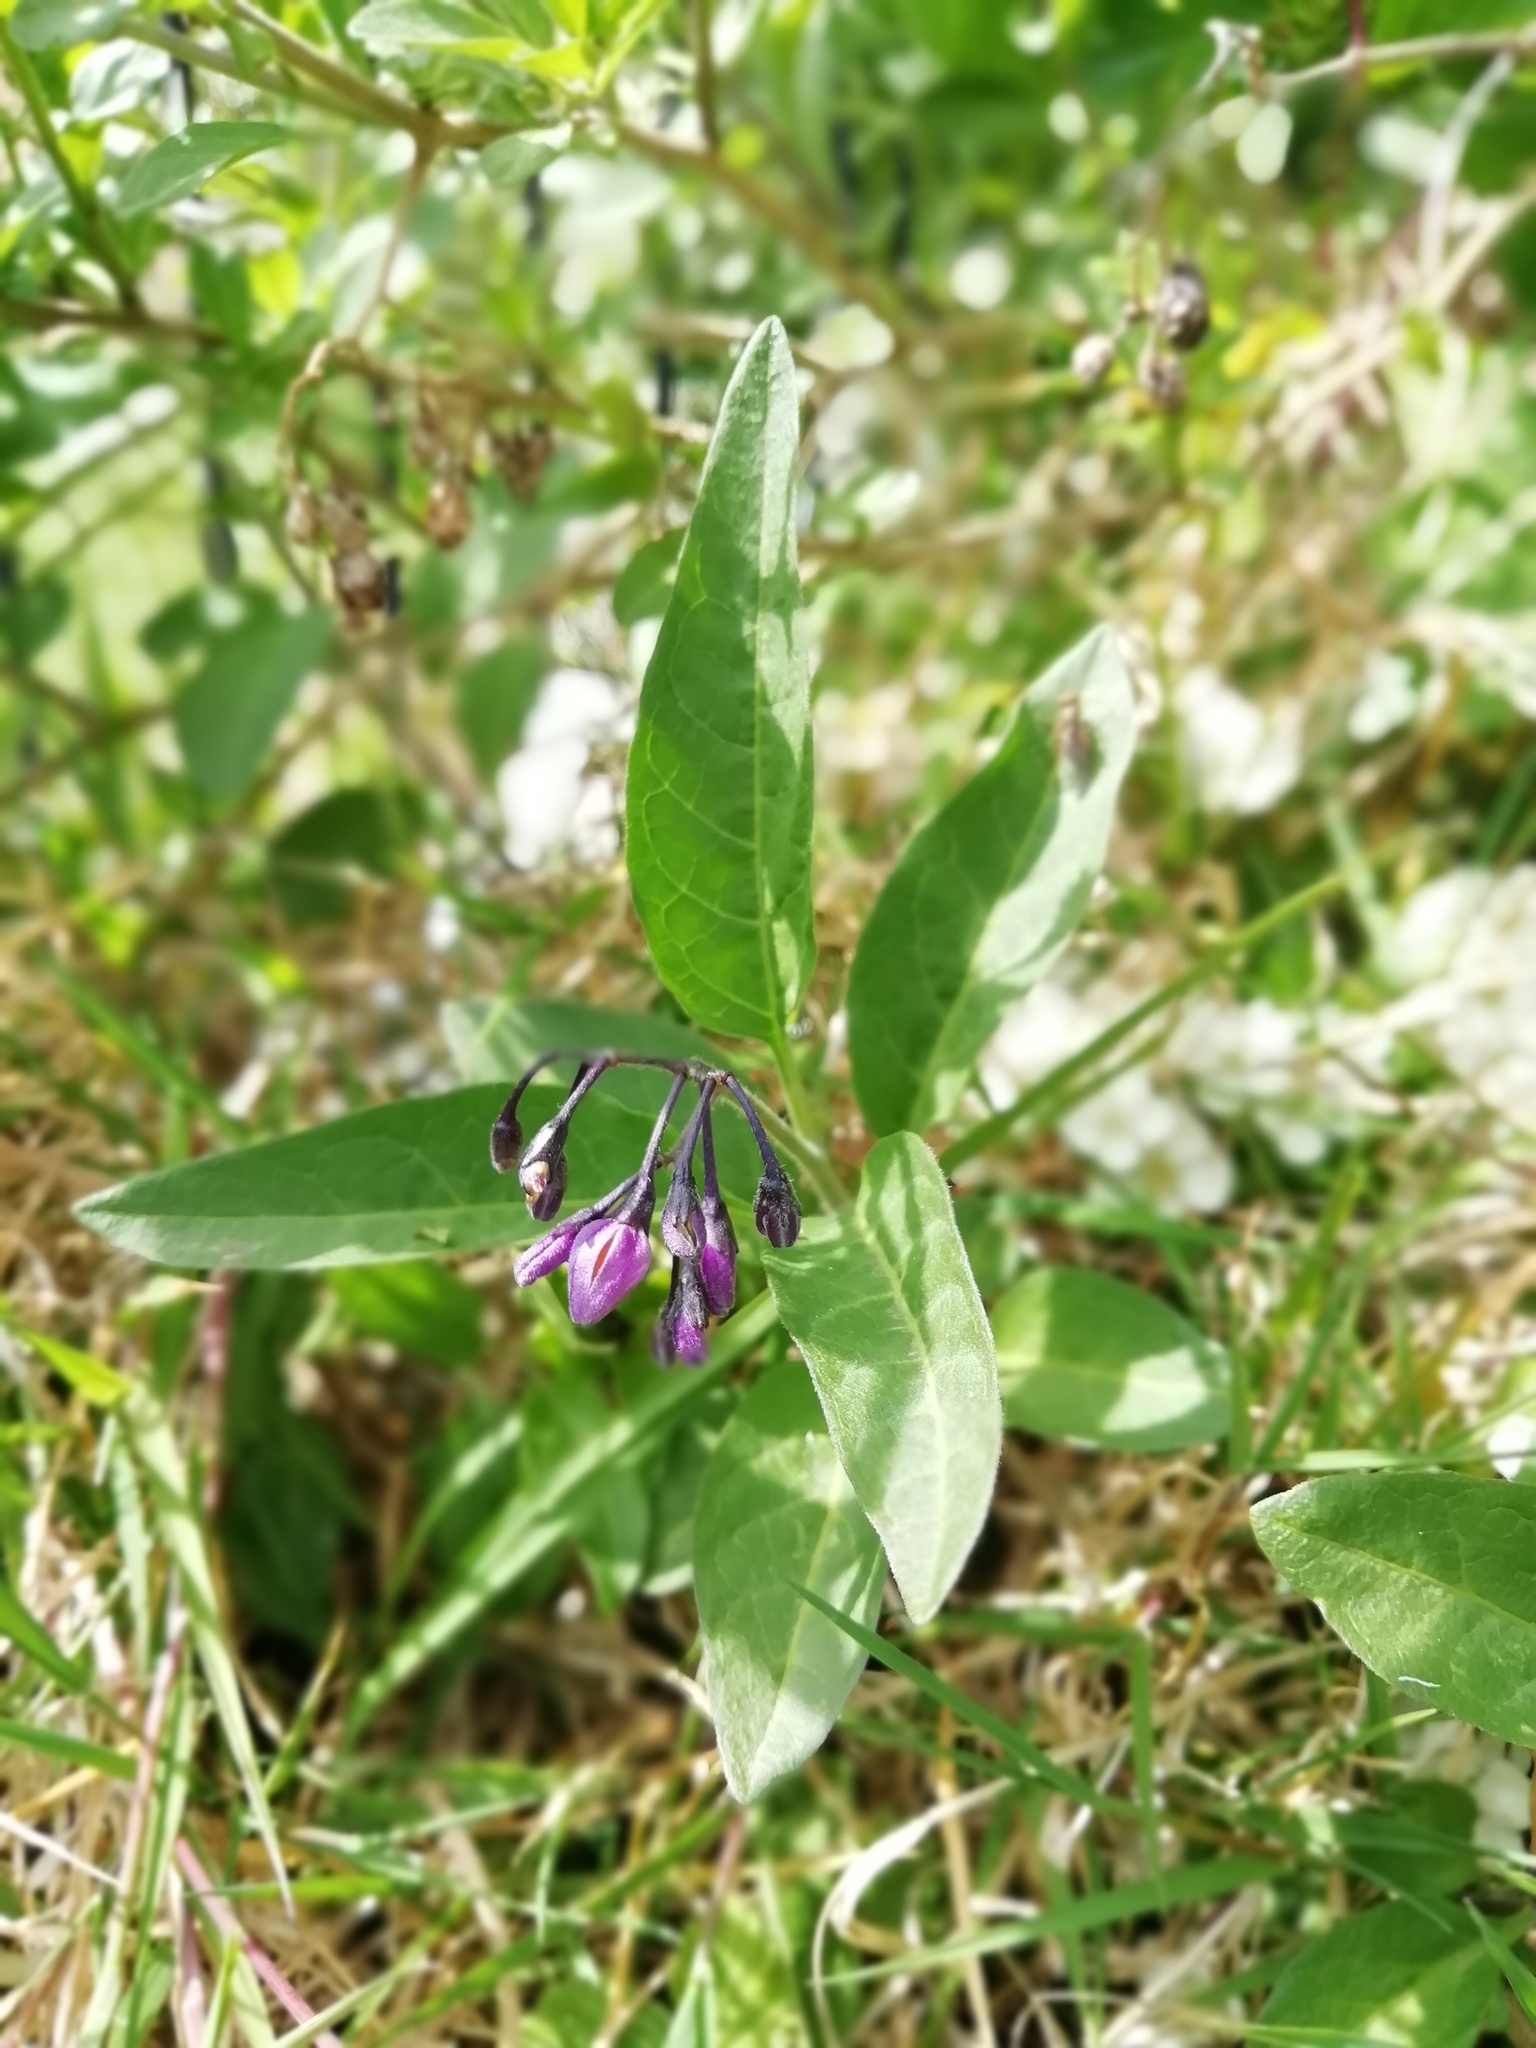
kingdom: Plantae
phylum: Tracheophyta
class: Magnoliopsida
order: Solanales
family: Solanaceae
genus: Solanum
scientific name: Solanum dulcamara
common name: Climbing nightshade
